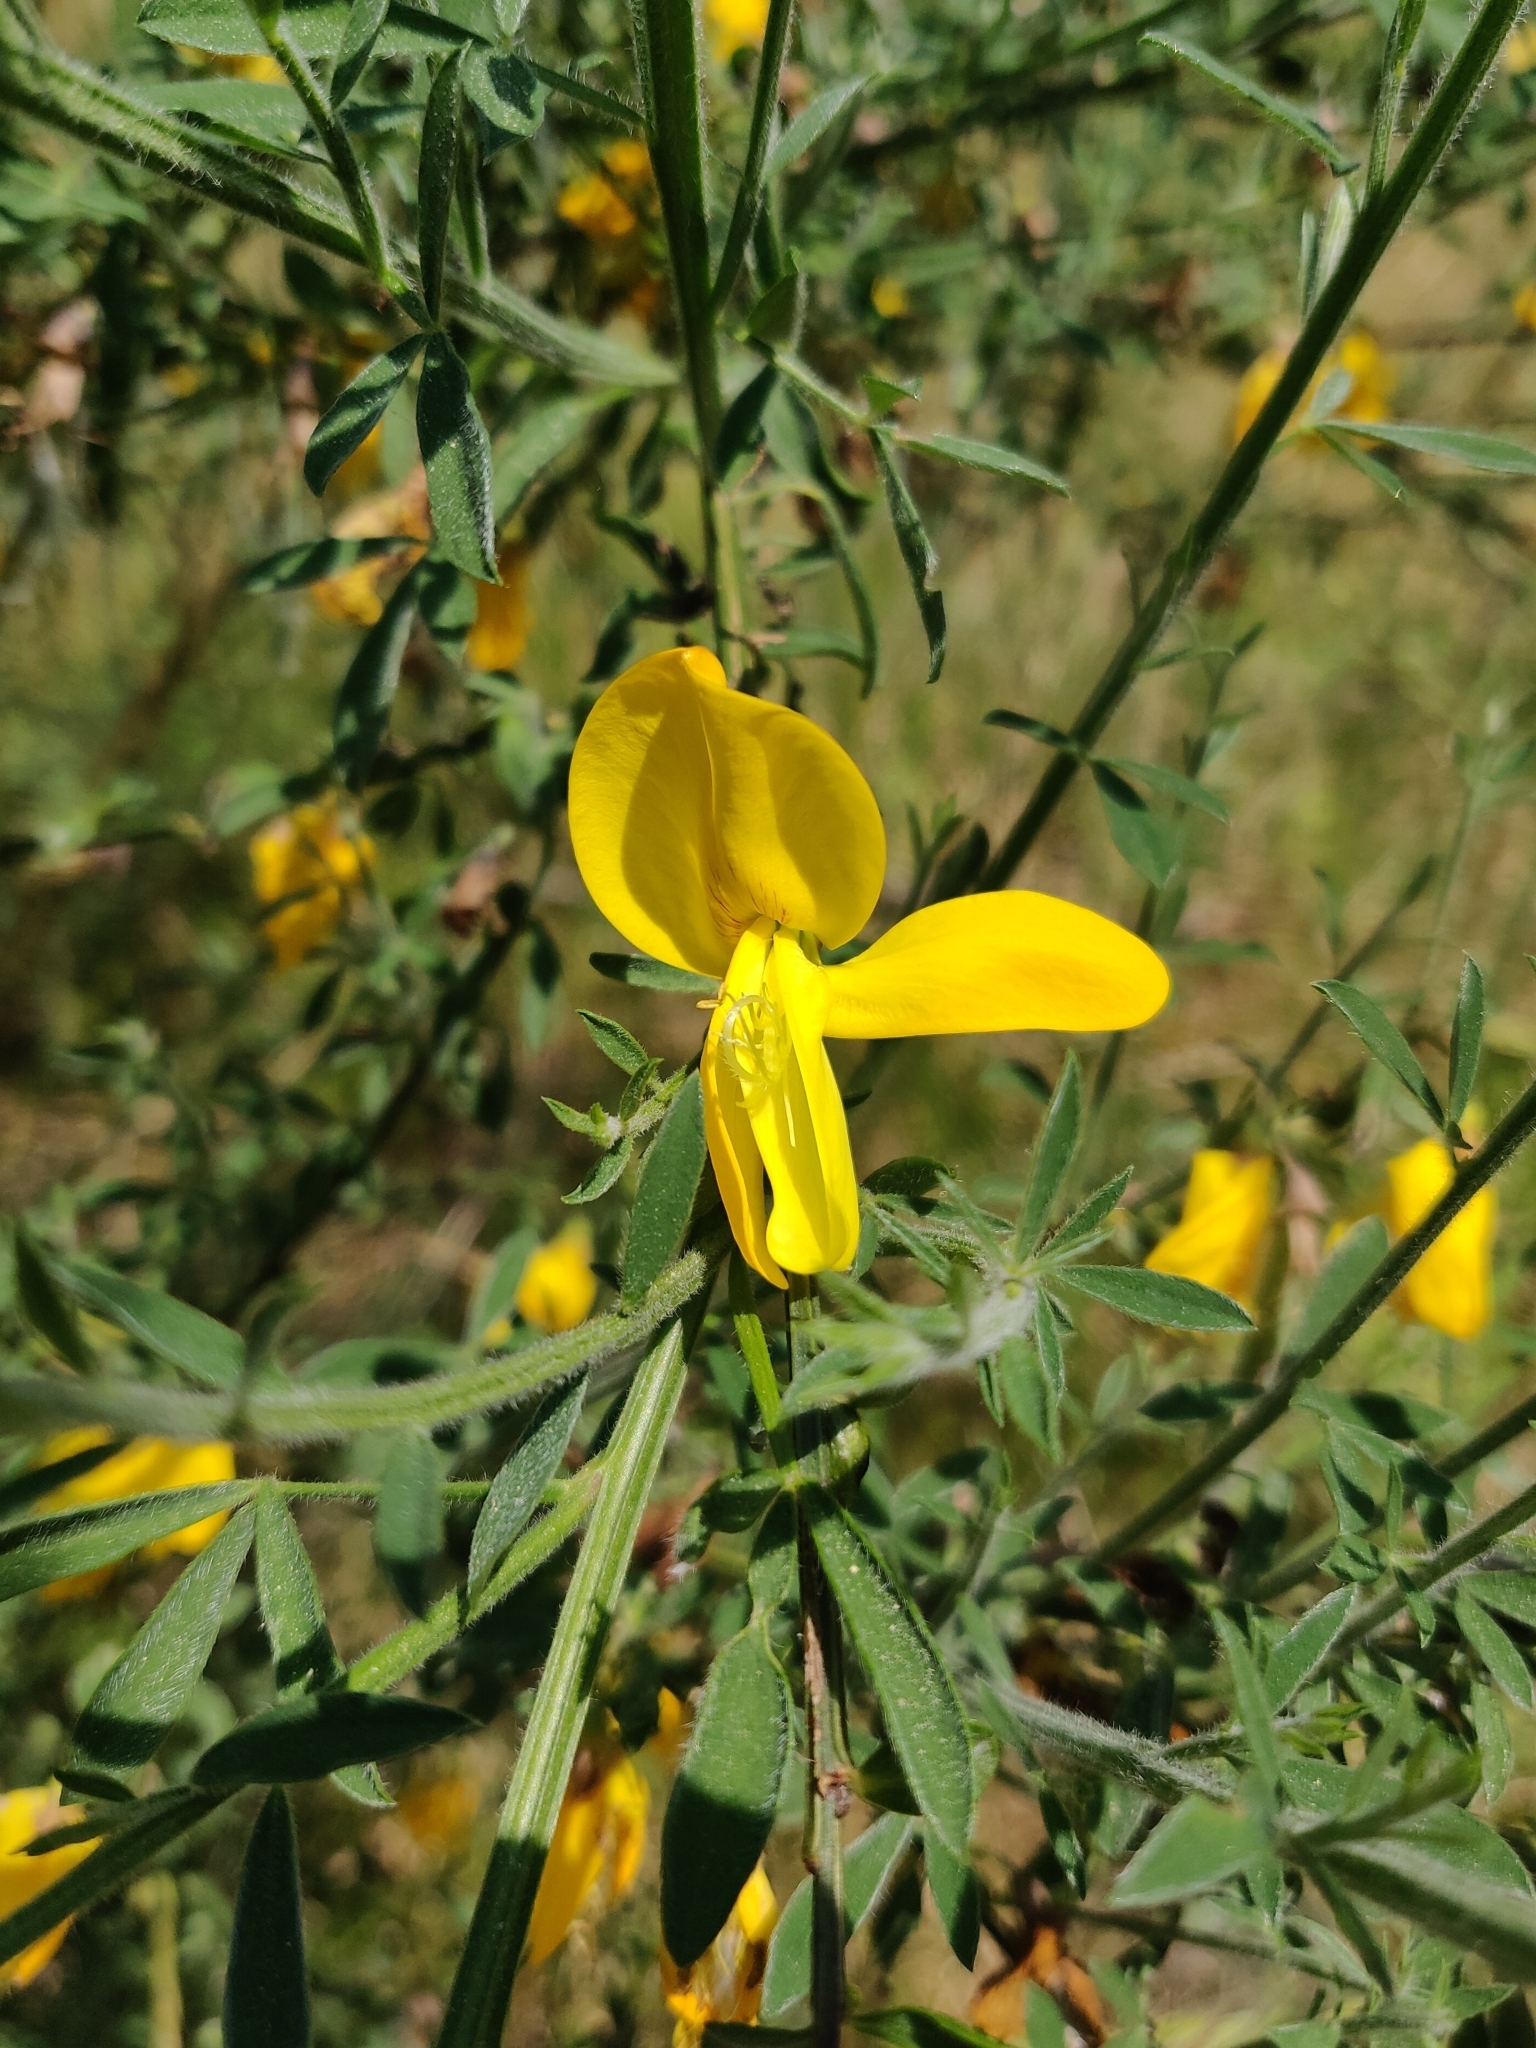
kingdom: Plantae
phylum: Tracheophyta
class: Magnoliopsida
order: Fabales
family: Fabaceae
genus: Cytisus
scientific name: Cytisus scoparius
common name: Scotch broom
